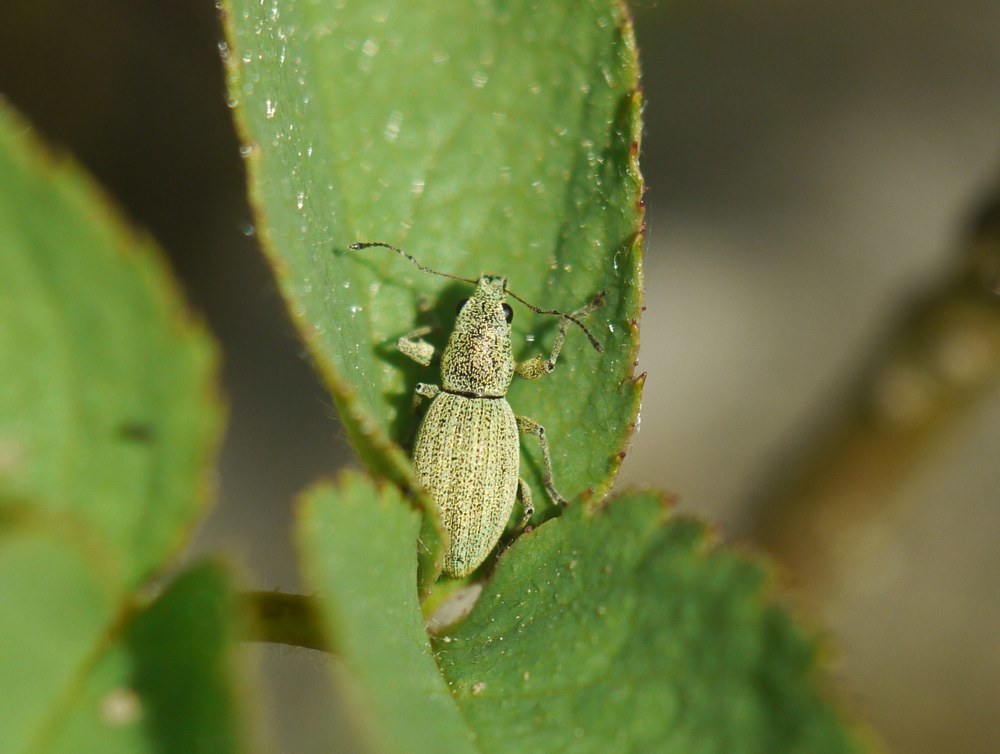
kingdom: Animalia
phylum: Arthropoda
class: Insecta
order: Coleoptera
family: Curculionidae
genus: Eusomus
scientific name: Eusomus ovulum
